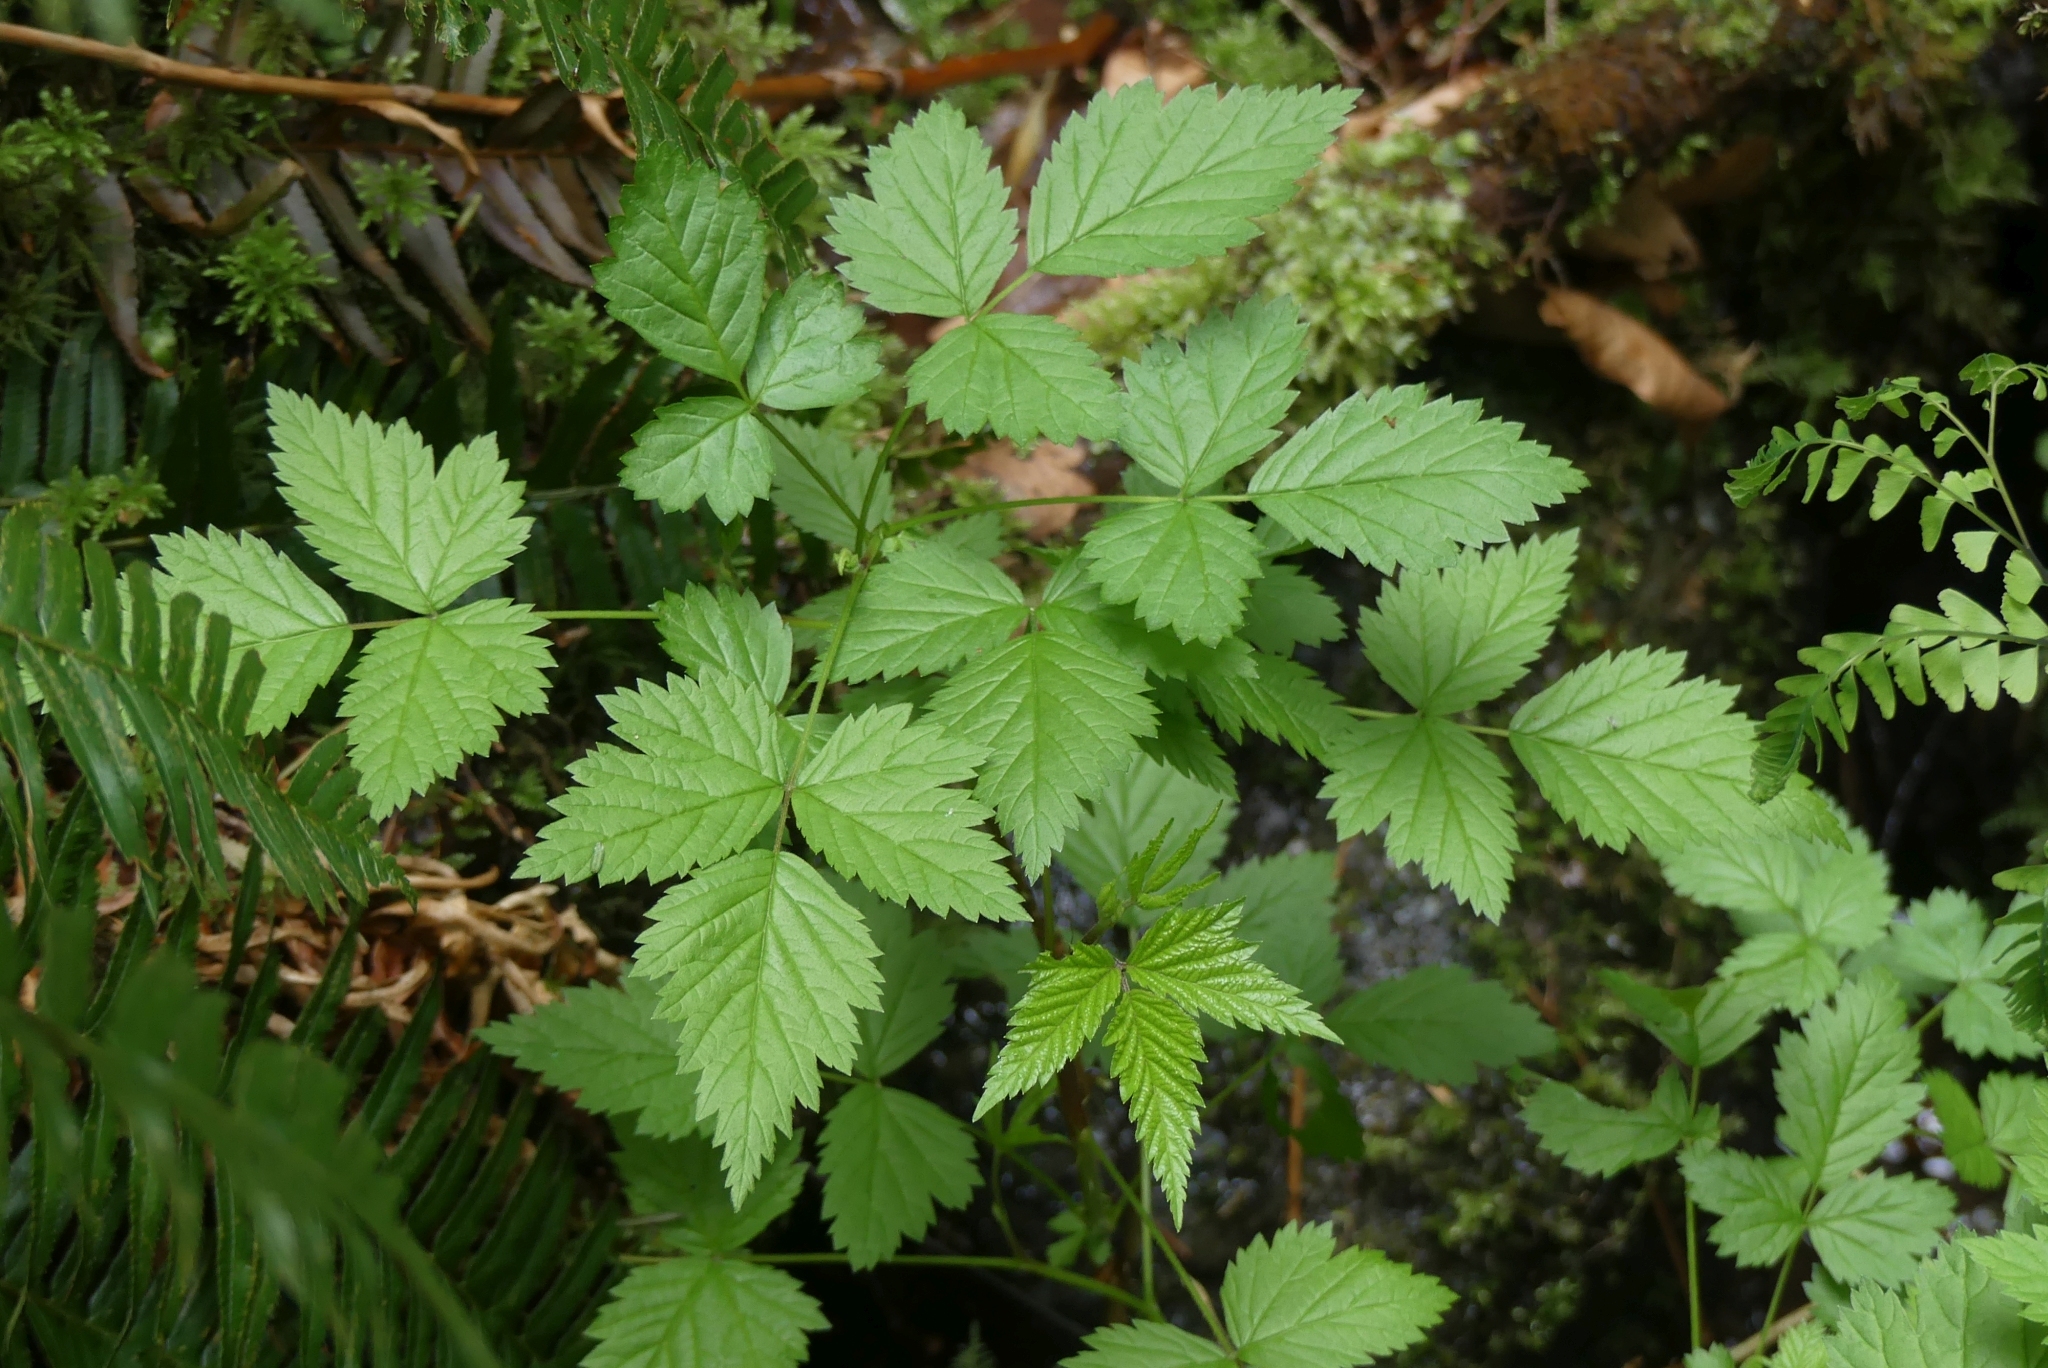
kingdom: Plantae
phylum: Tracheophyta
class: Magnoliopsida
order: Rosales
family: Rosaceae
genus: Rubus
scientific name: Rubus spectabilis
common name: Salmonberry
